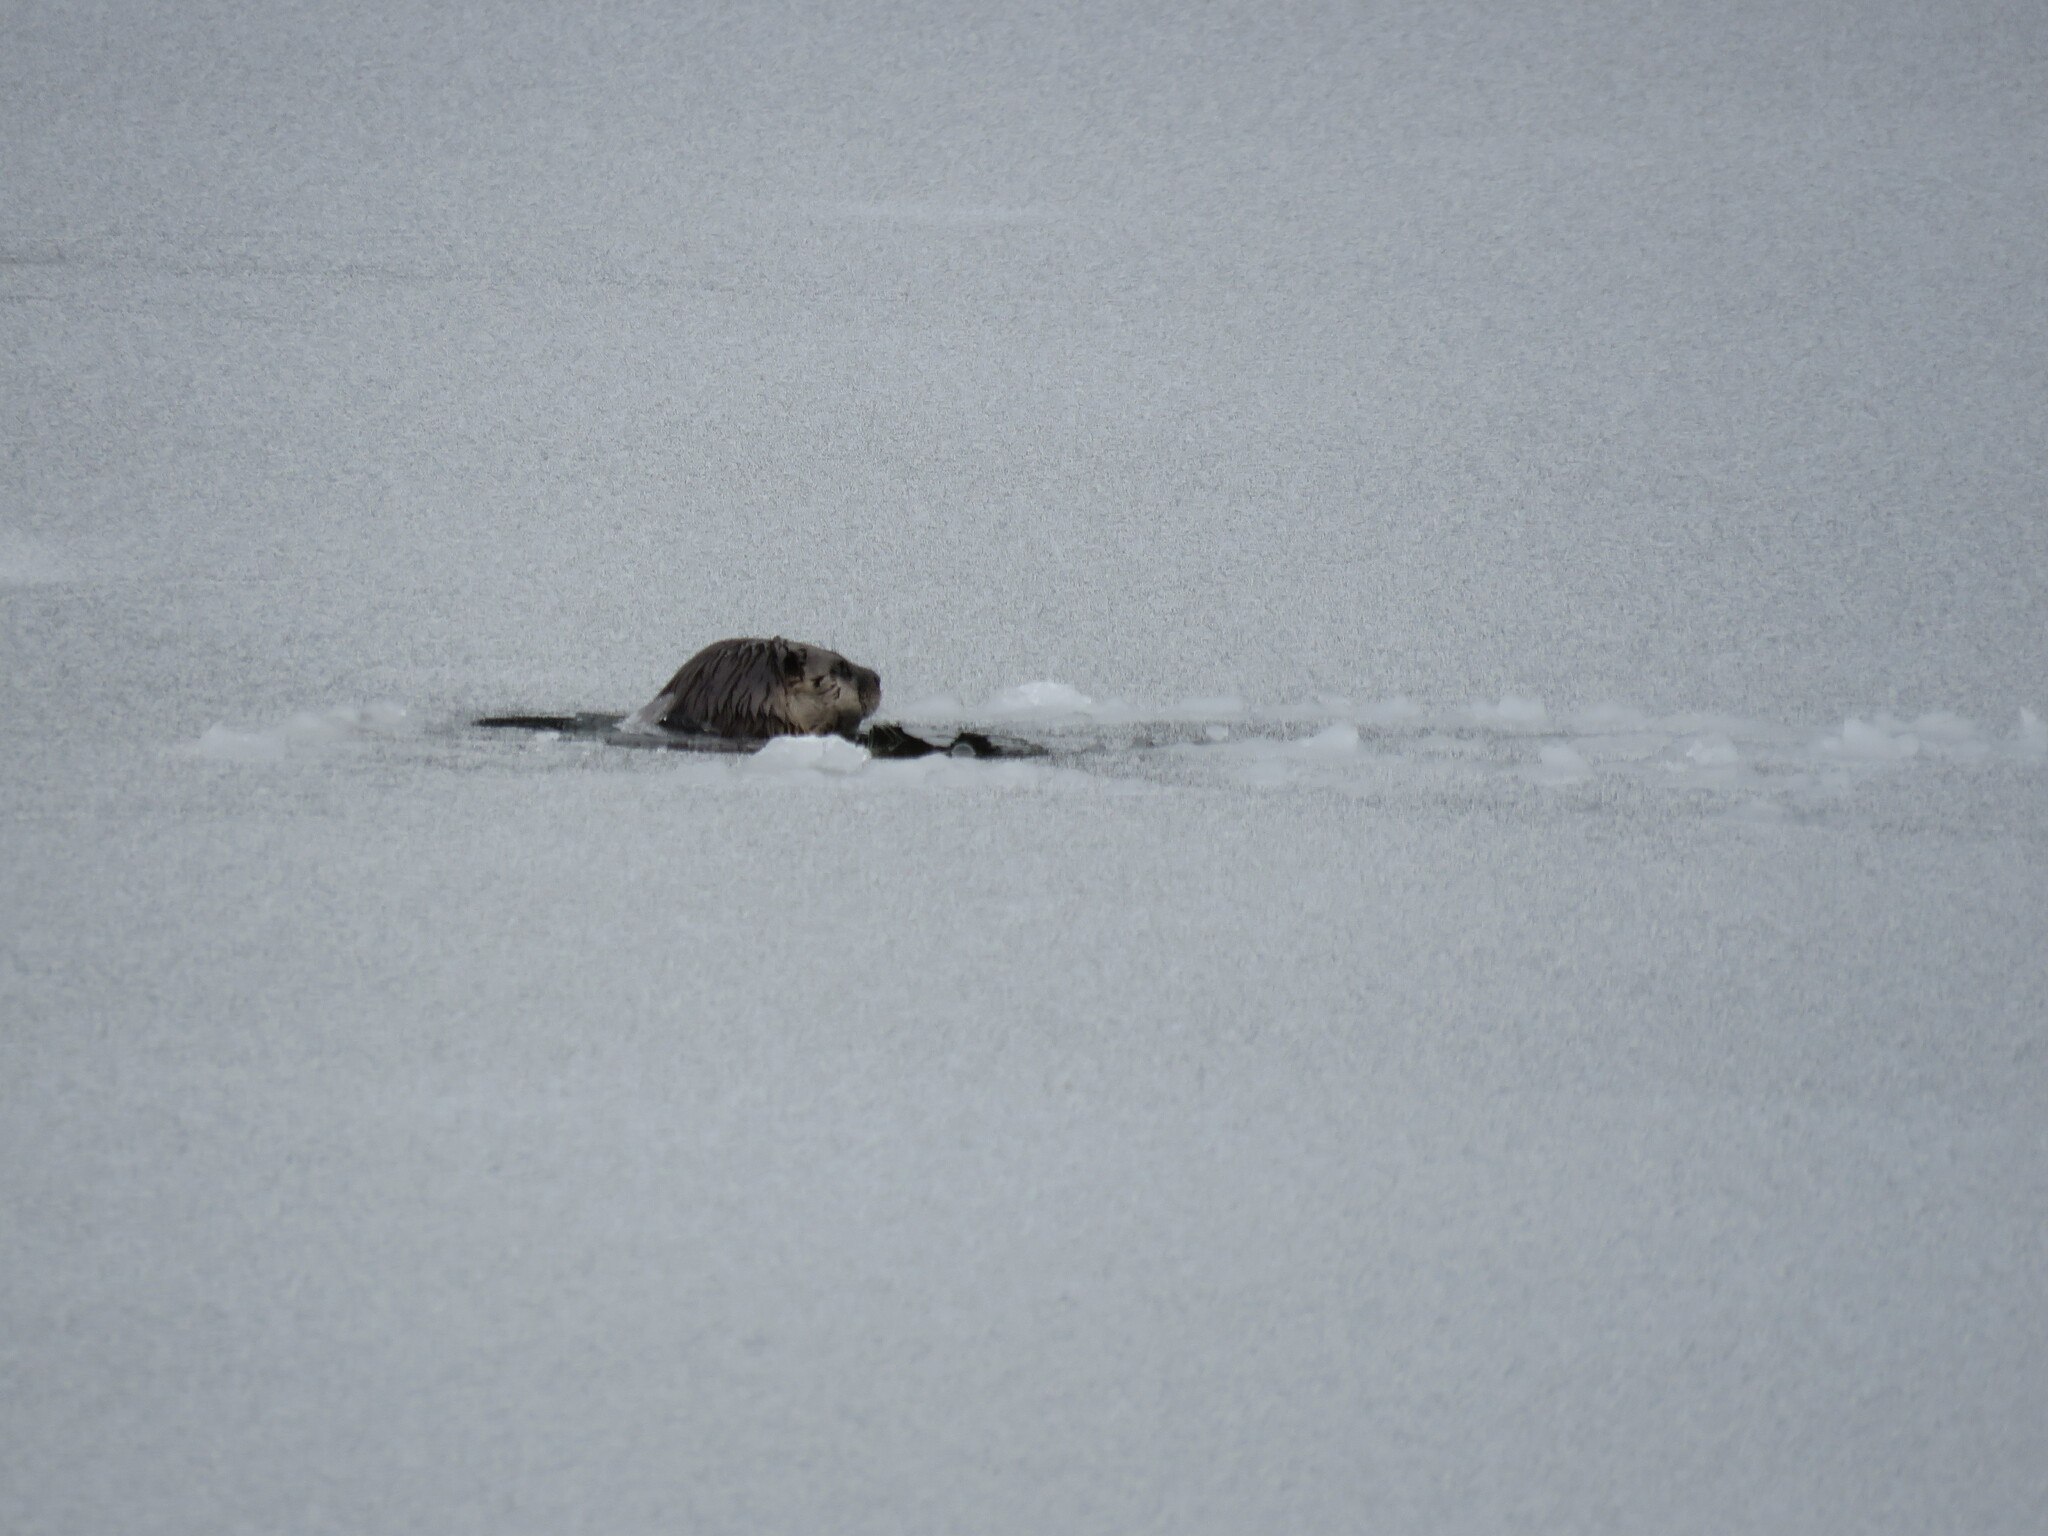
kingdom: Animalia
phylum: Chordata
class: Mammalia
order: Carnivora
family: Mustelidae
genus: Lontra
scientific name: Lontra canadensis
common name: North american river otter
